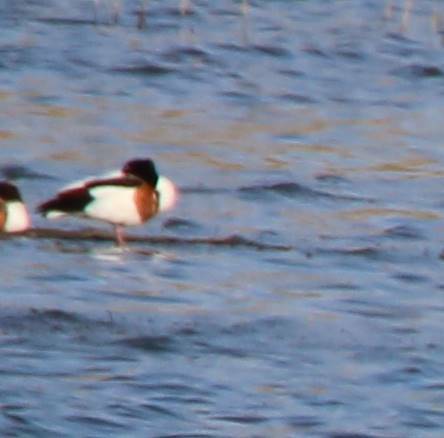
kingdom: Animalia
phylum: Chordata
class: Aves
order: Anseriformes
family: Anatidae
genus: Tadorna
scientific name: Tadorna tadorna
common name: Common shelduck
